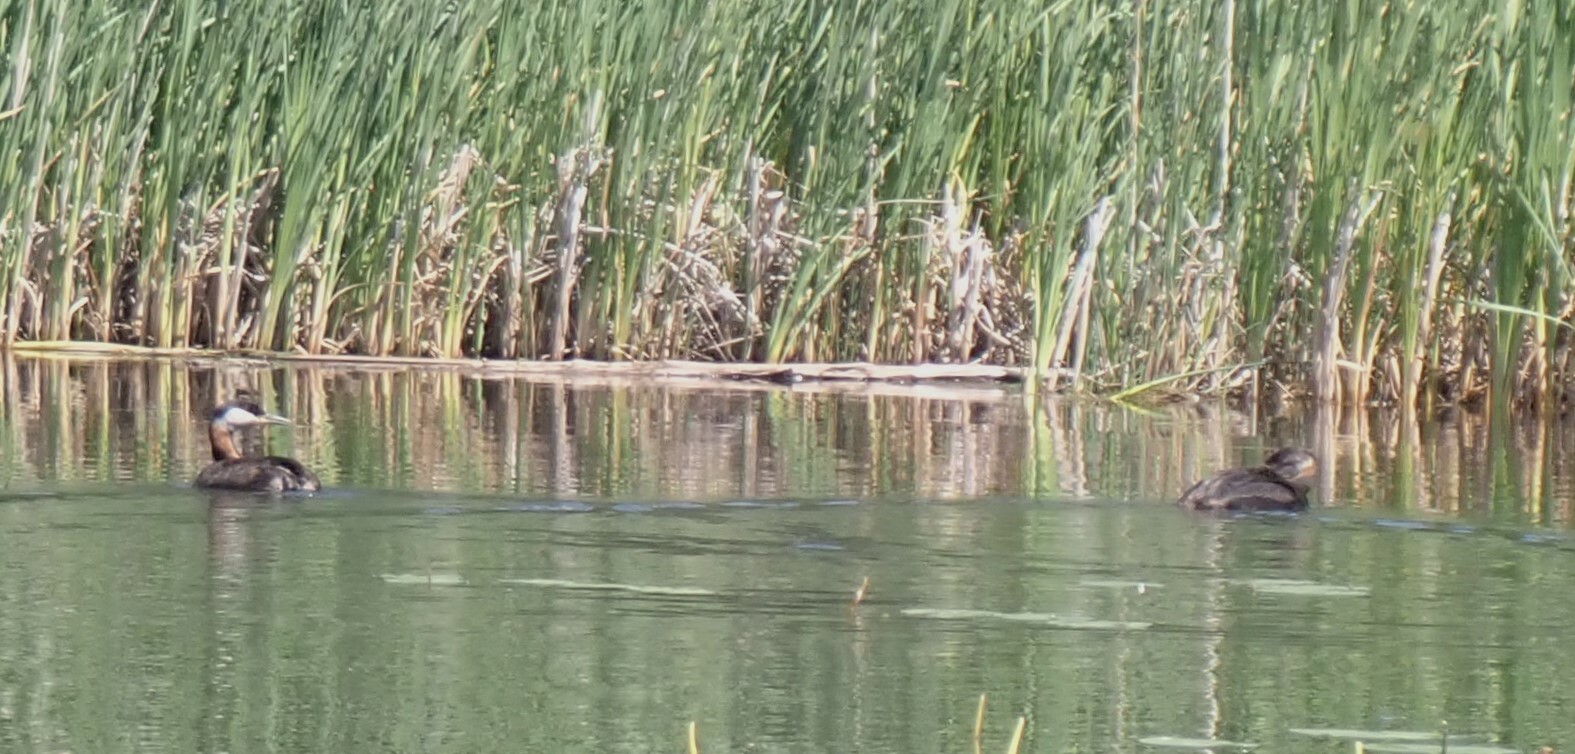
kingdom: Animalia
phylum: Chordata
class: Aves
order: Podicipediformes
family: Podicipedidae
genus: Podiceps
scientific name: Podiceps grisegena
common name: Red-necked grebe
